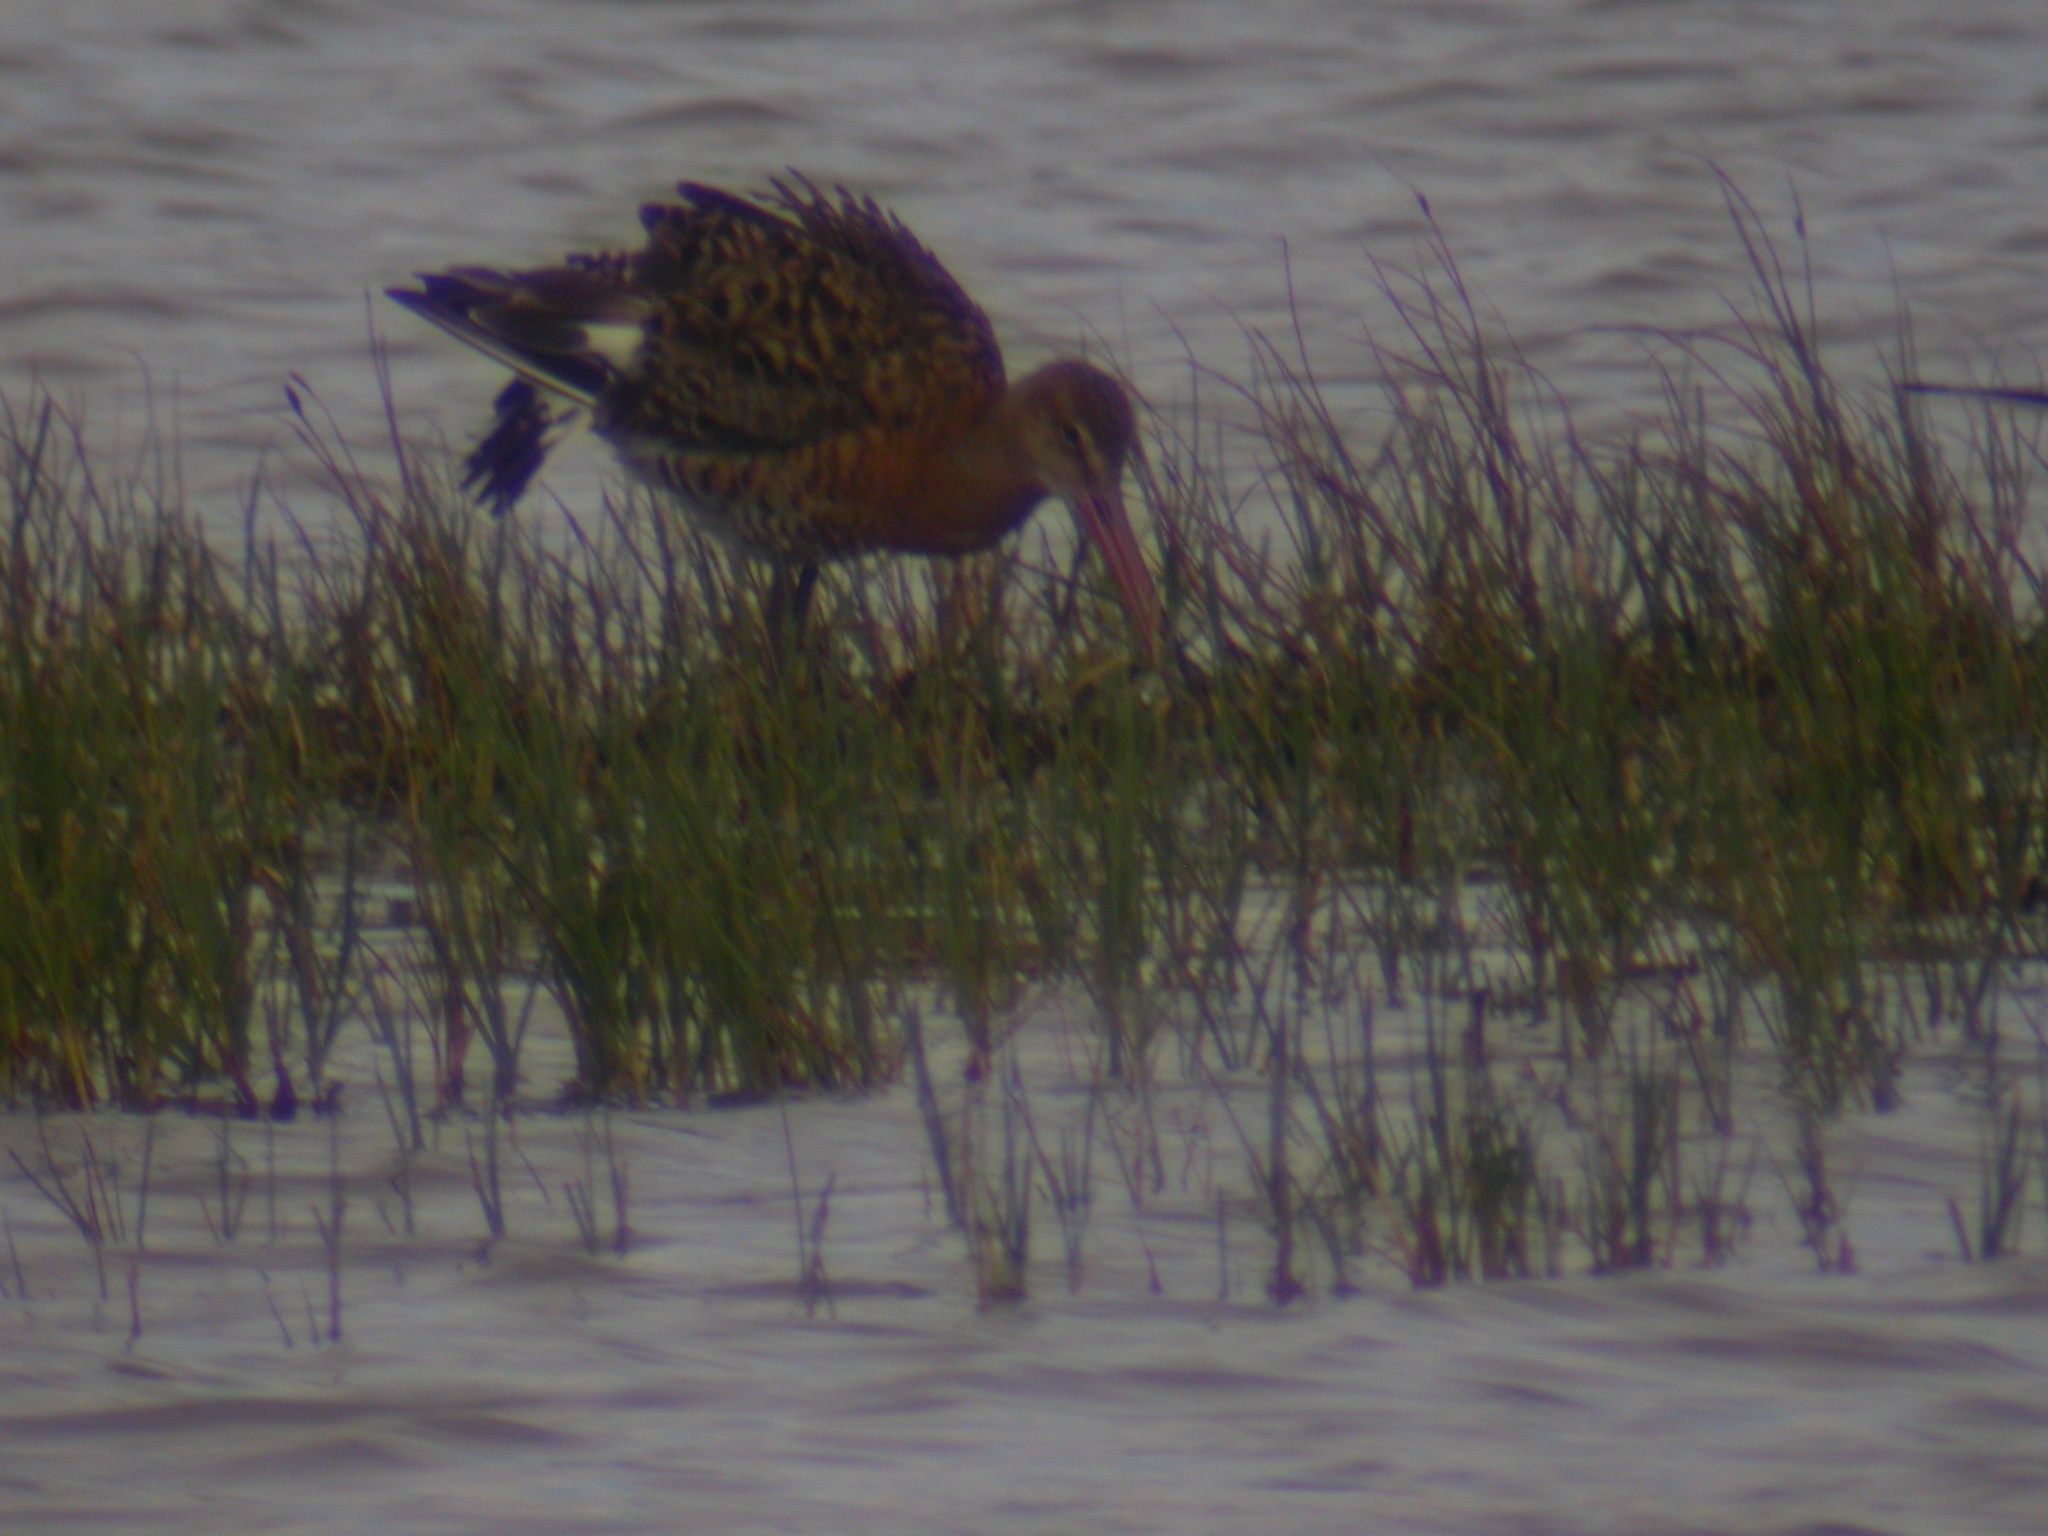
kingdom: Animalia
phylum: Chordata
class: Aves
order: Charadriiformes
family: Scolopacidae
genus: Limosa
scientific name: Limosa limosa
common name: Black-tailed godwit
